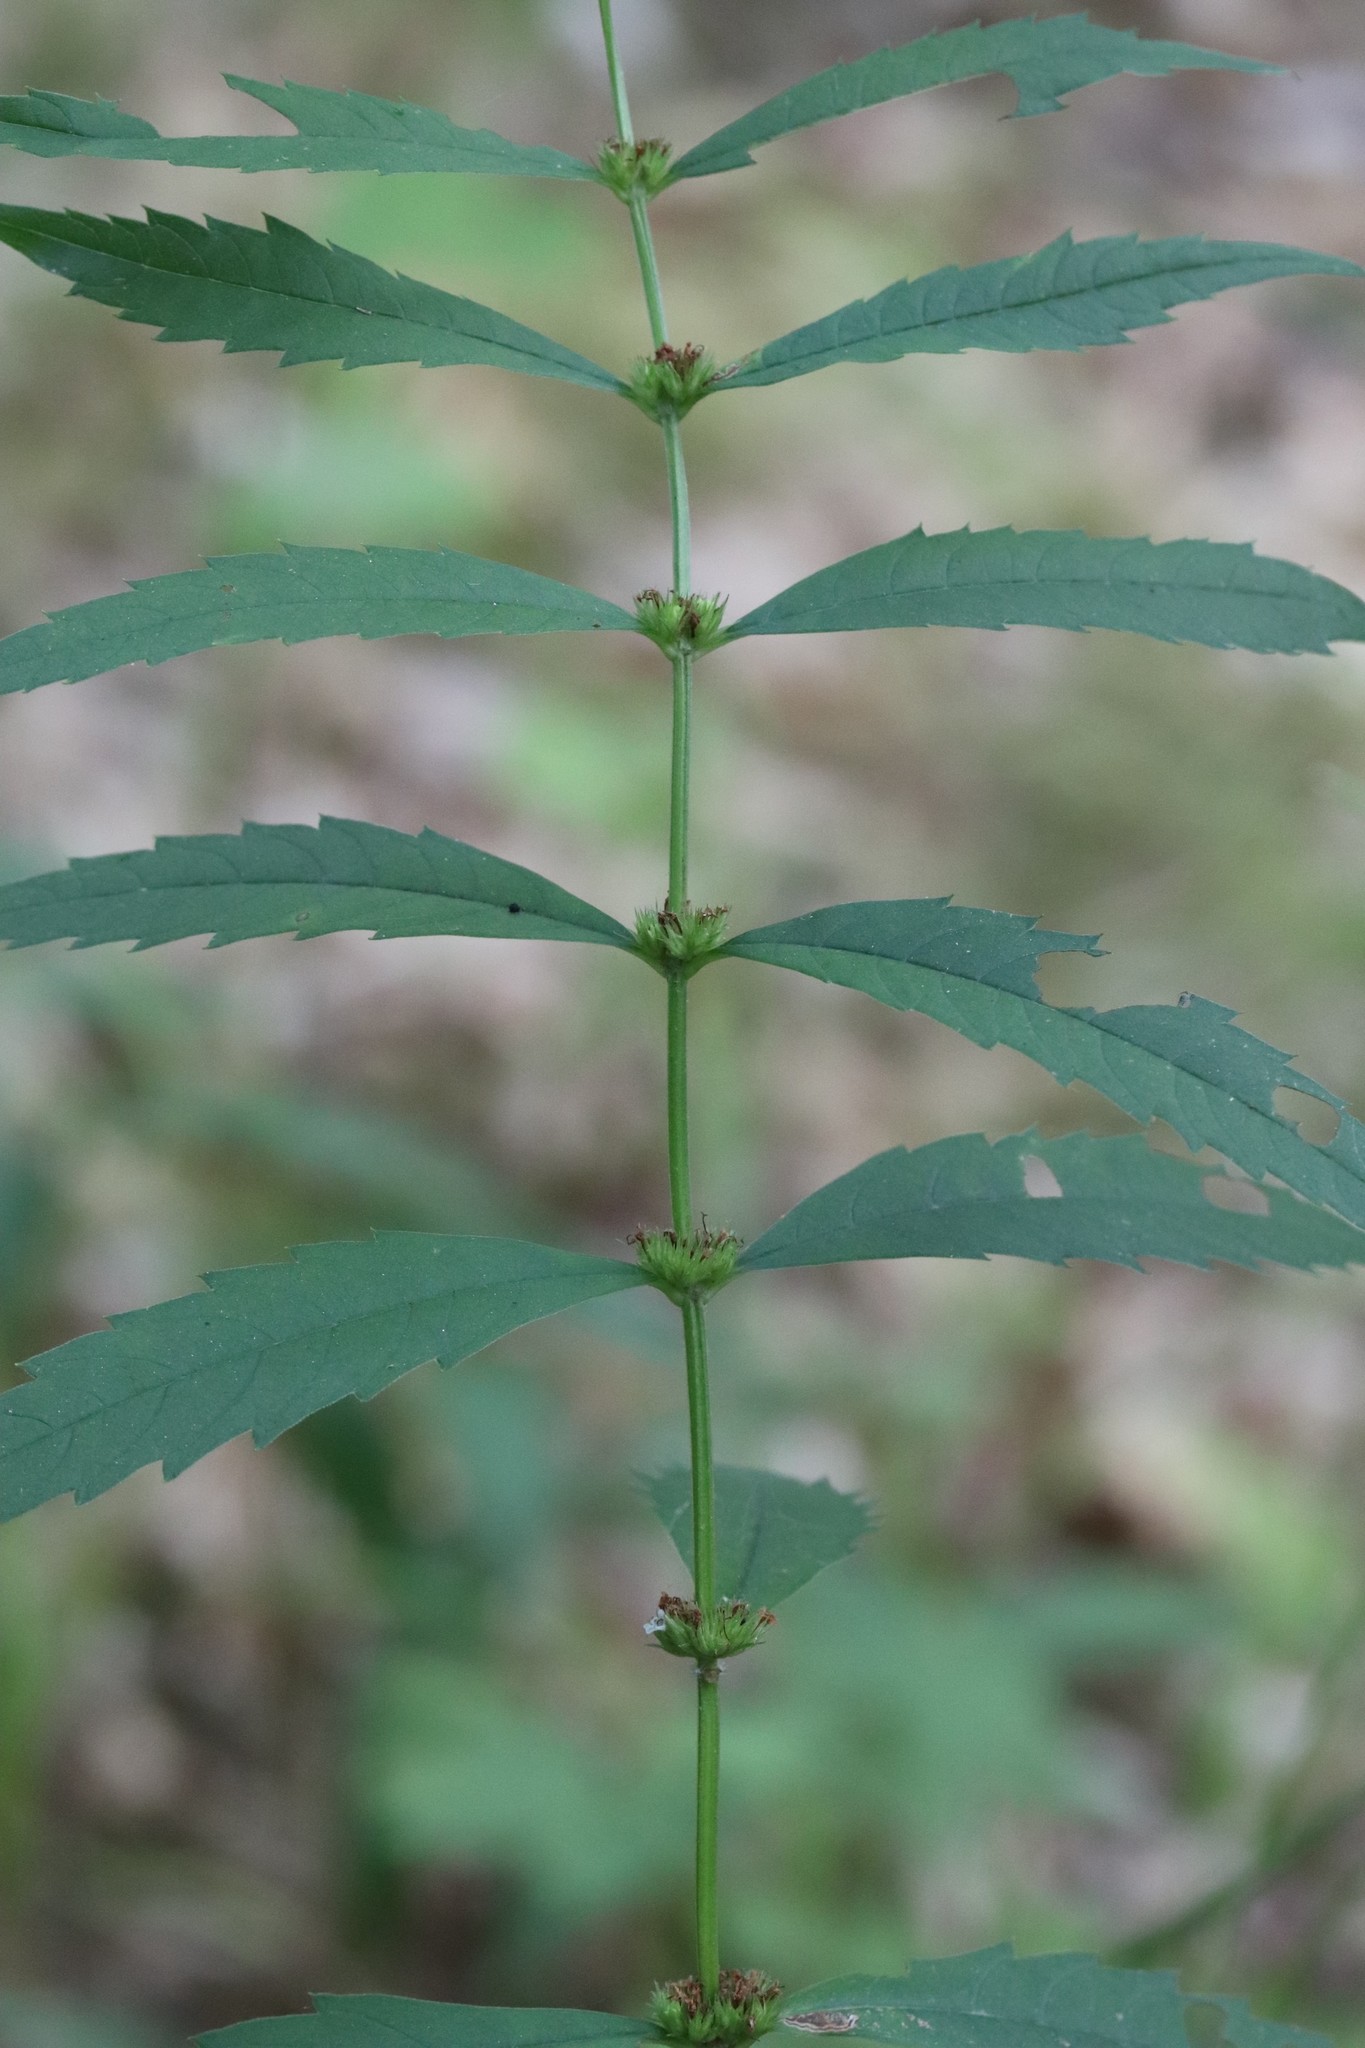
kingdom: Plantae
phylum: Tracheophyta
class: Magnoliopsida
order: Lamiales
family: Lamiaceae
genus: Lycopus
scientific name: Lycopus lucidus
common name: Shiny bugleweed
